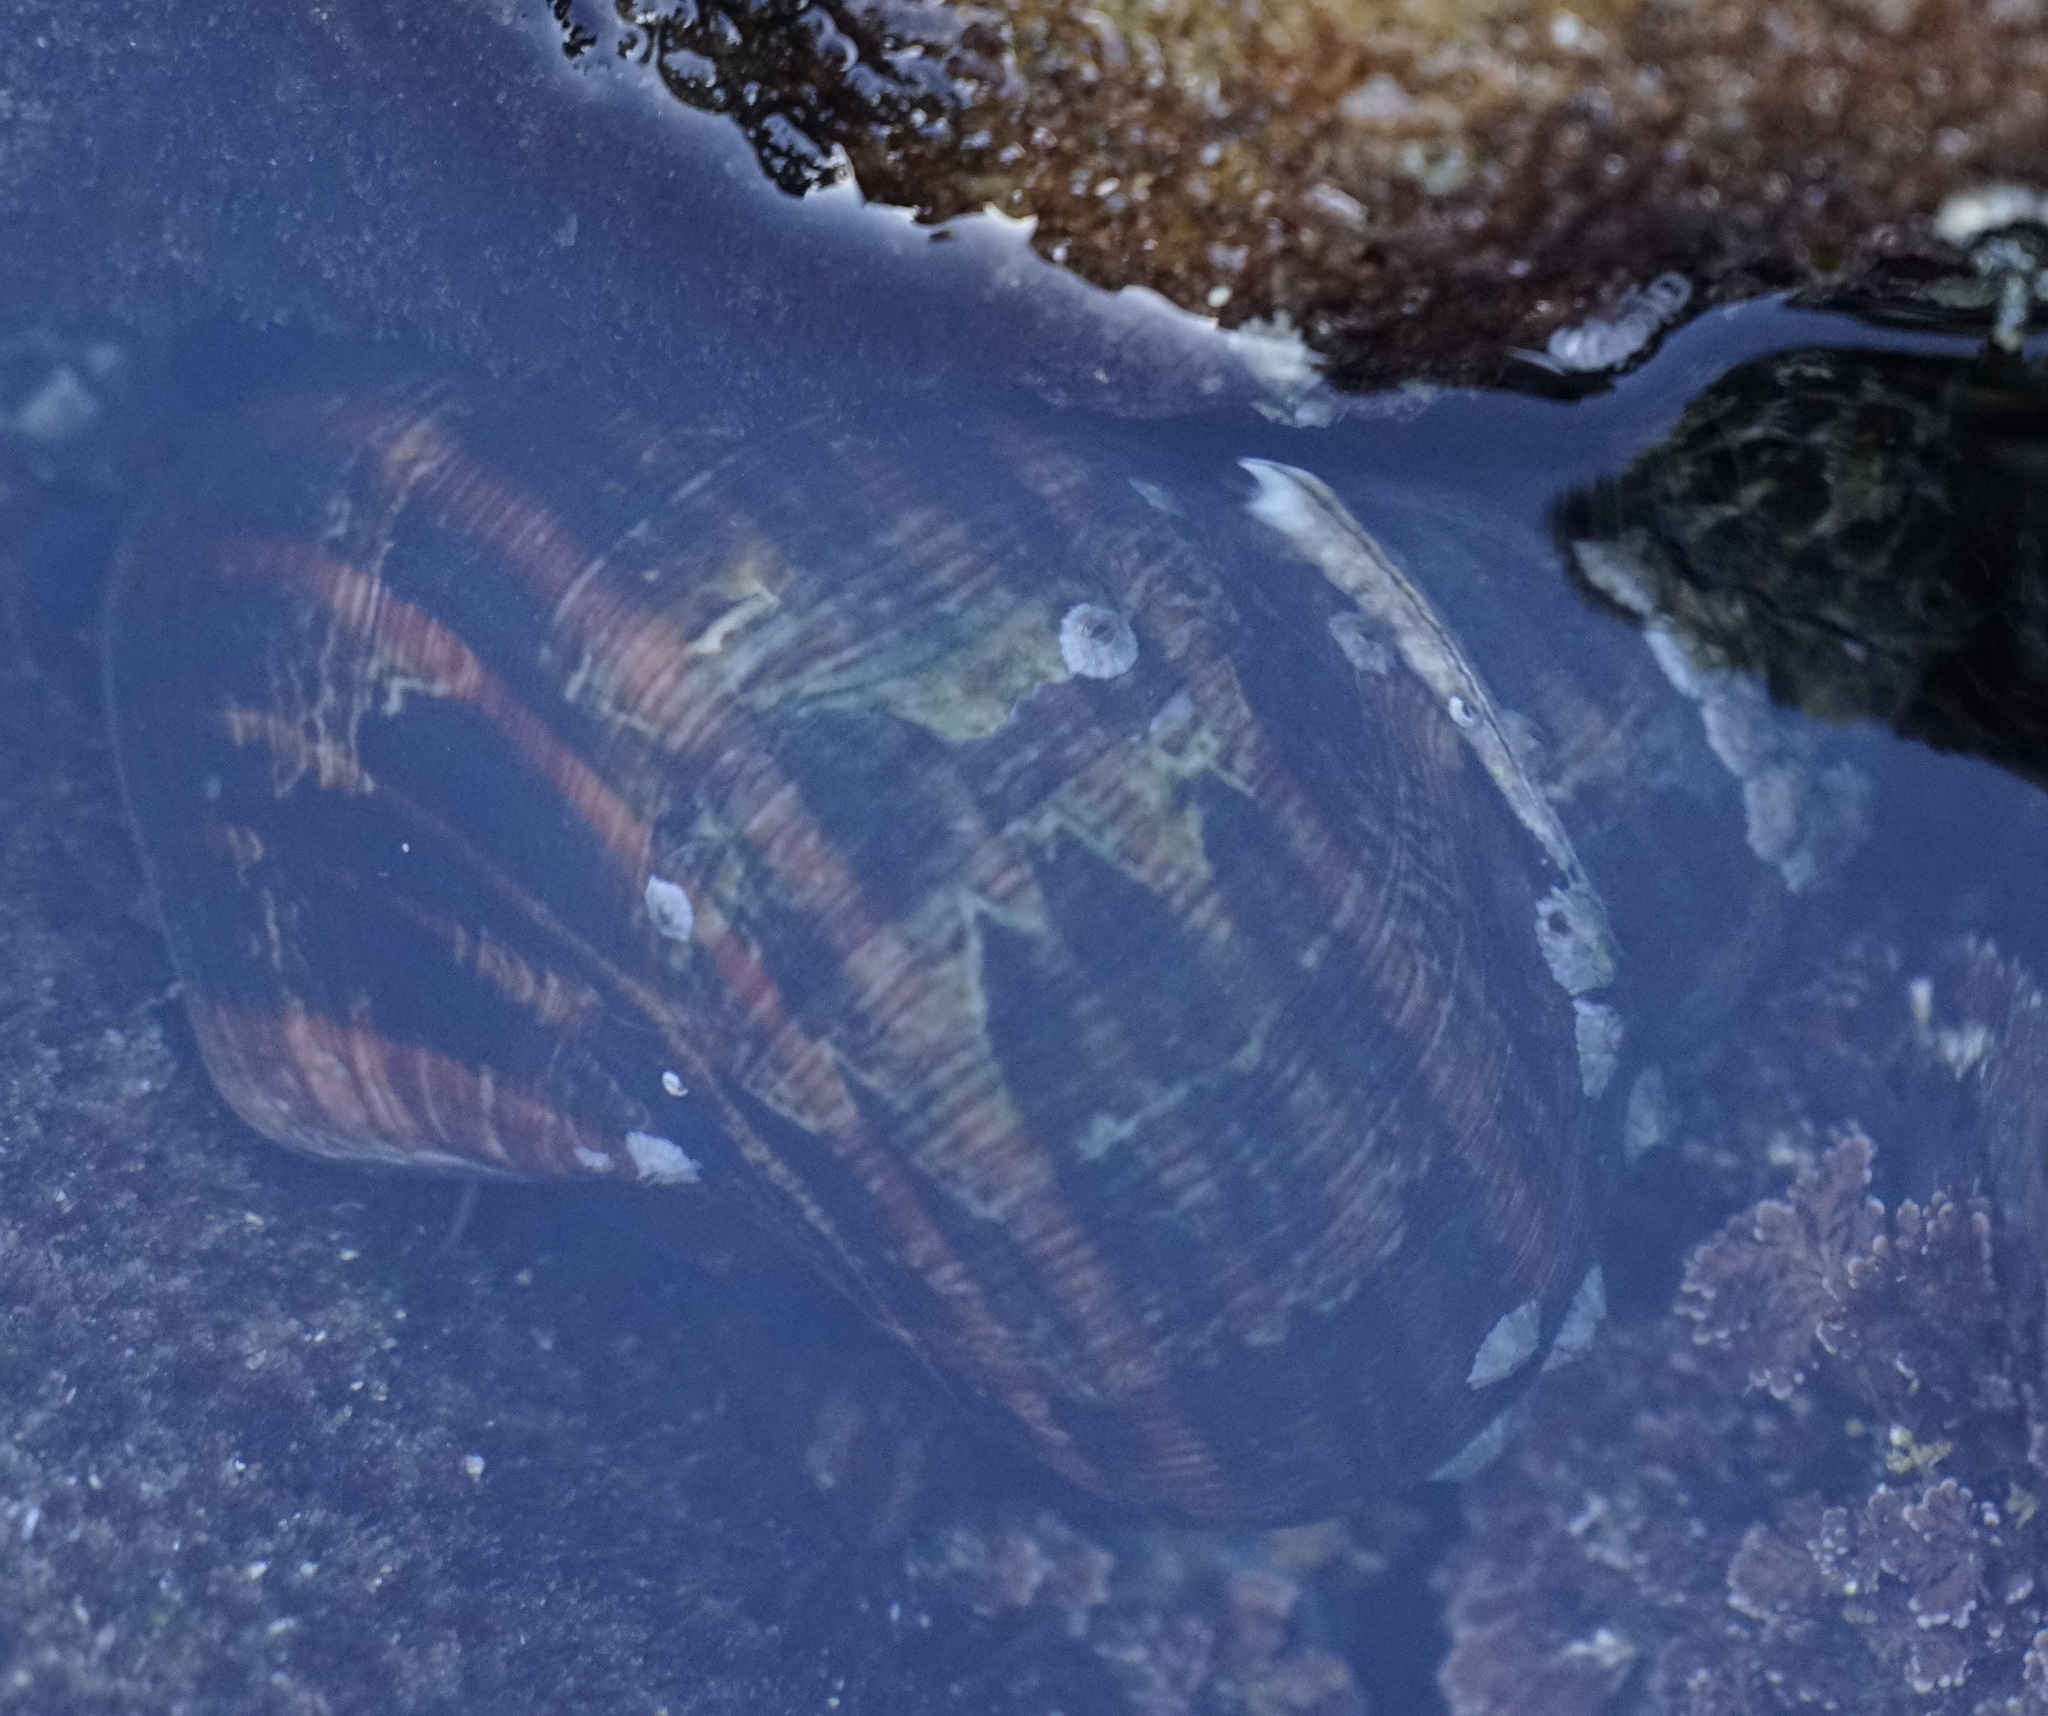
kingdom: Animalia
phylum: Mollusca
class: Gastropoda
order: Trochida
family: Turbinidae
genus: Turbo
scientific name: Turbo militaris
